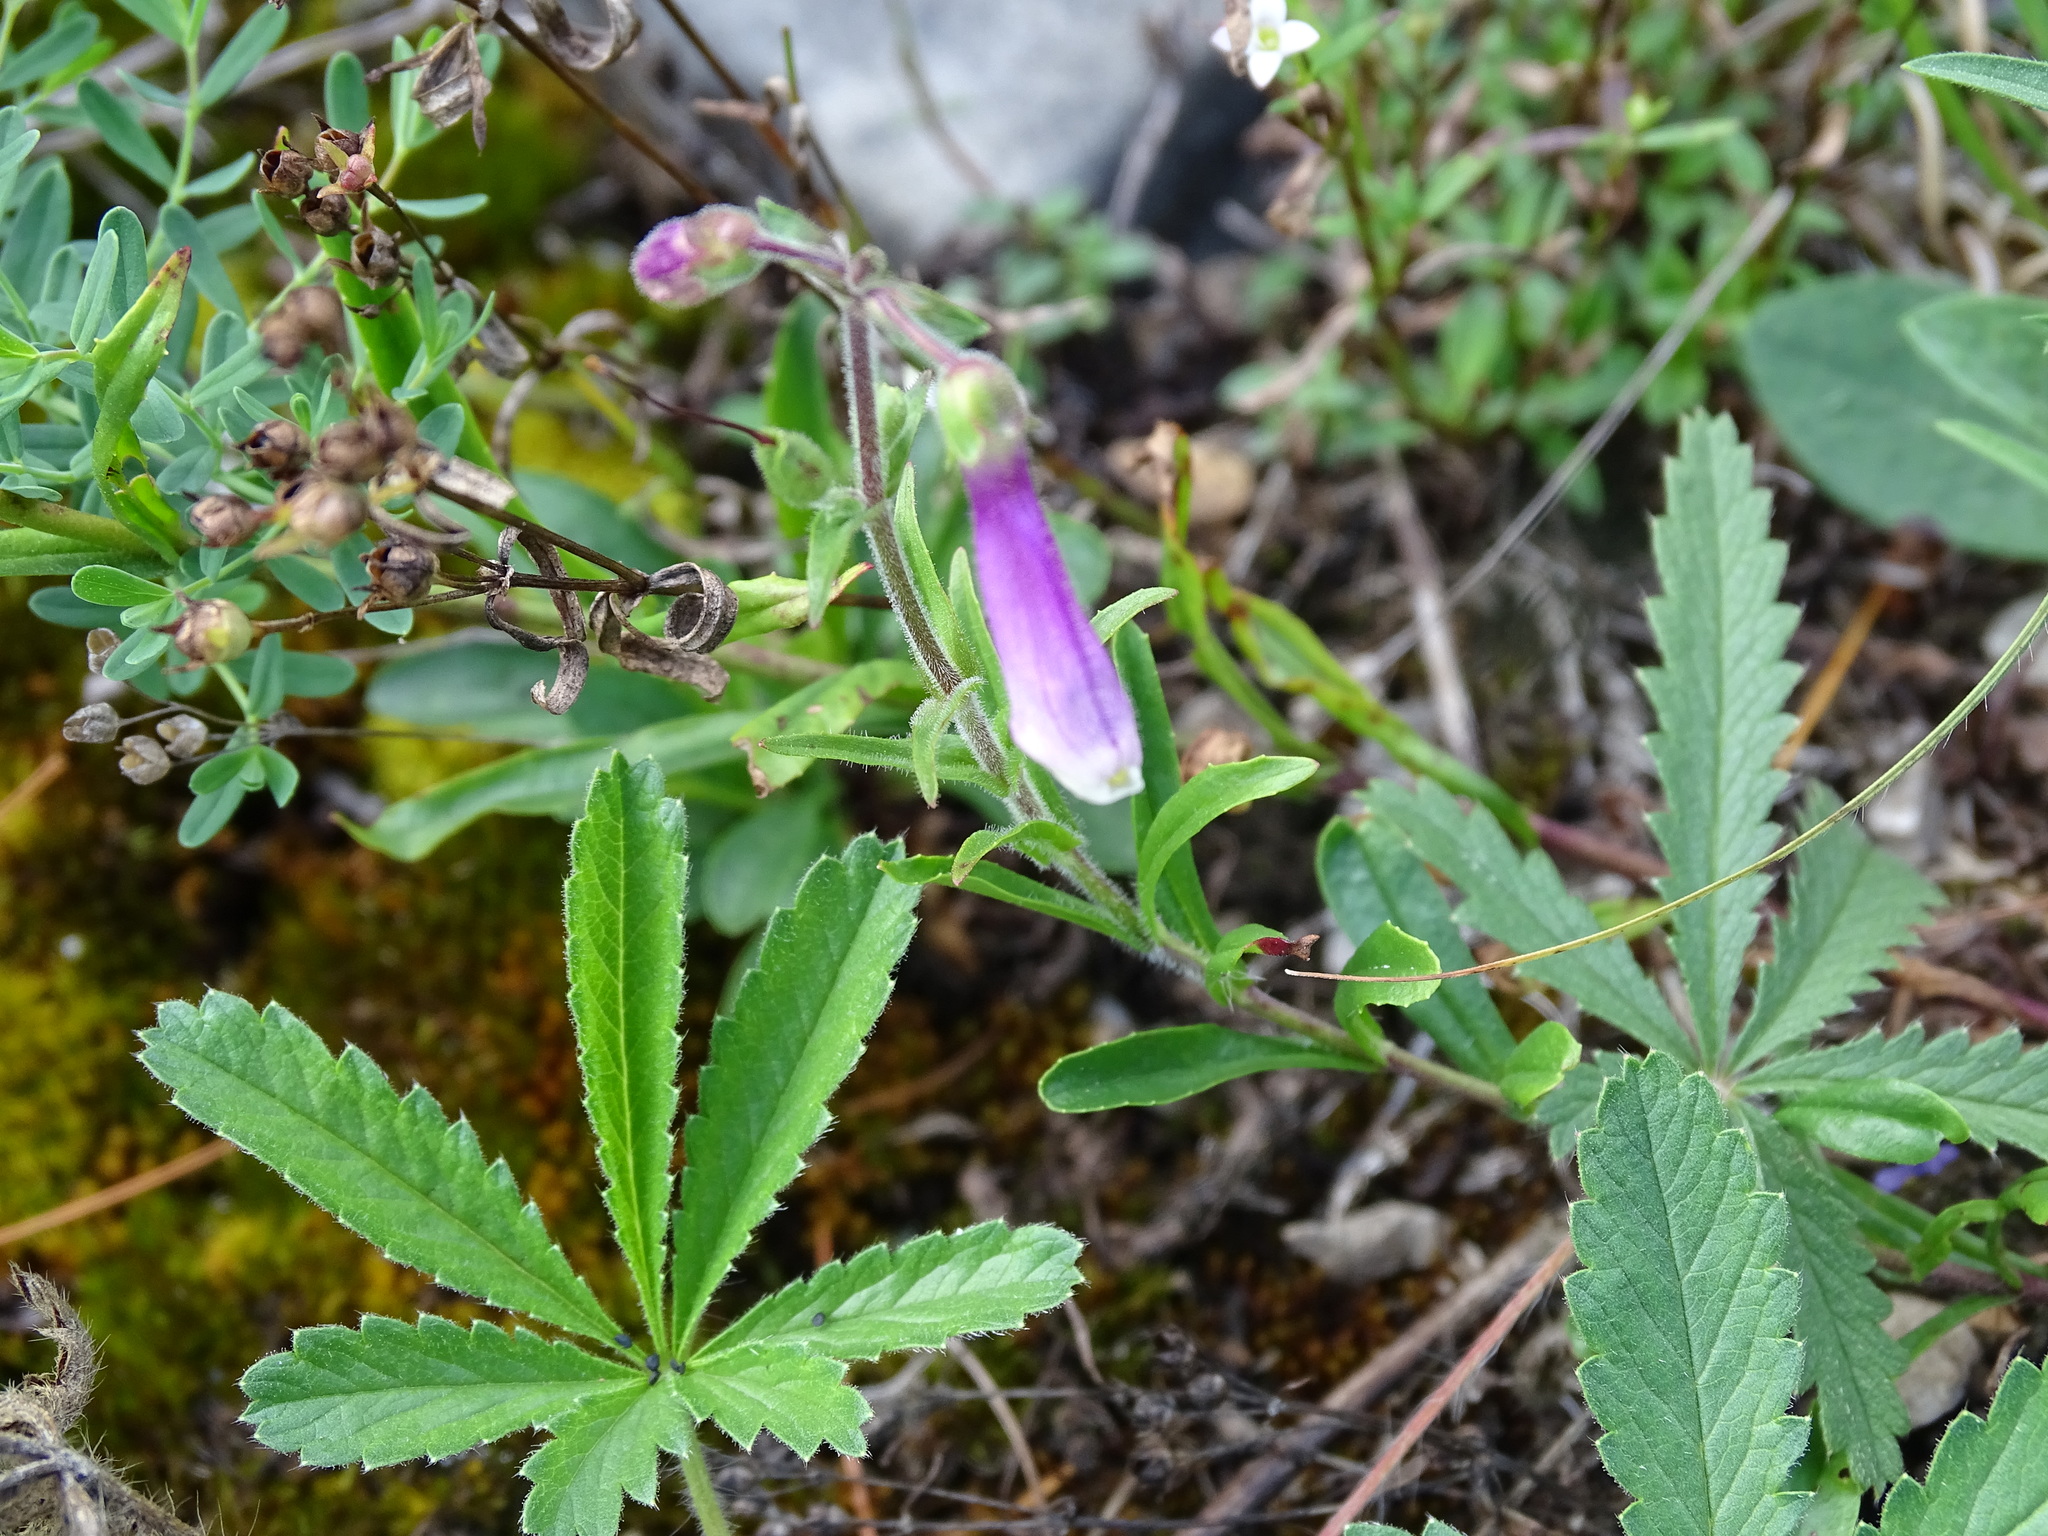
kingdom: Plantae
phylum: Tracheophyta
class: Magnoliopsida
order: Lamiales
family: Plantaginaceae
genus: Penstemon
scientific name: Penstemon hirsutus
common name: Hairy beardtongue
